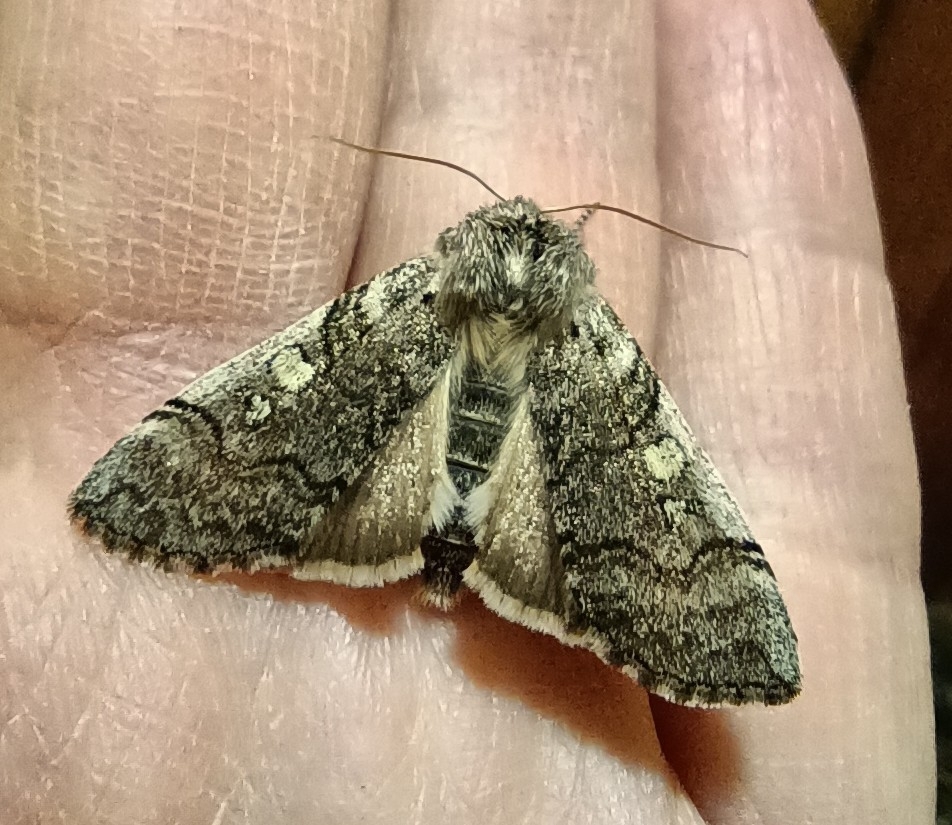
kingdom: Animalia
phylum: Arthropoda
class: Insecta
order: Lepidoptera
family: Drepanidae
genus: Achlya
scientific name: Achlya flavicornis
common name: Yellow horned
